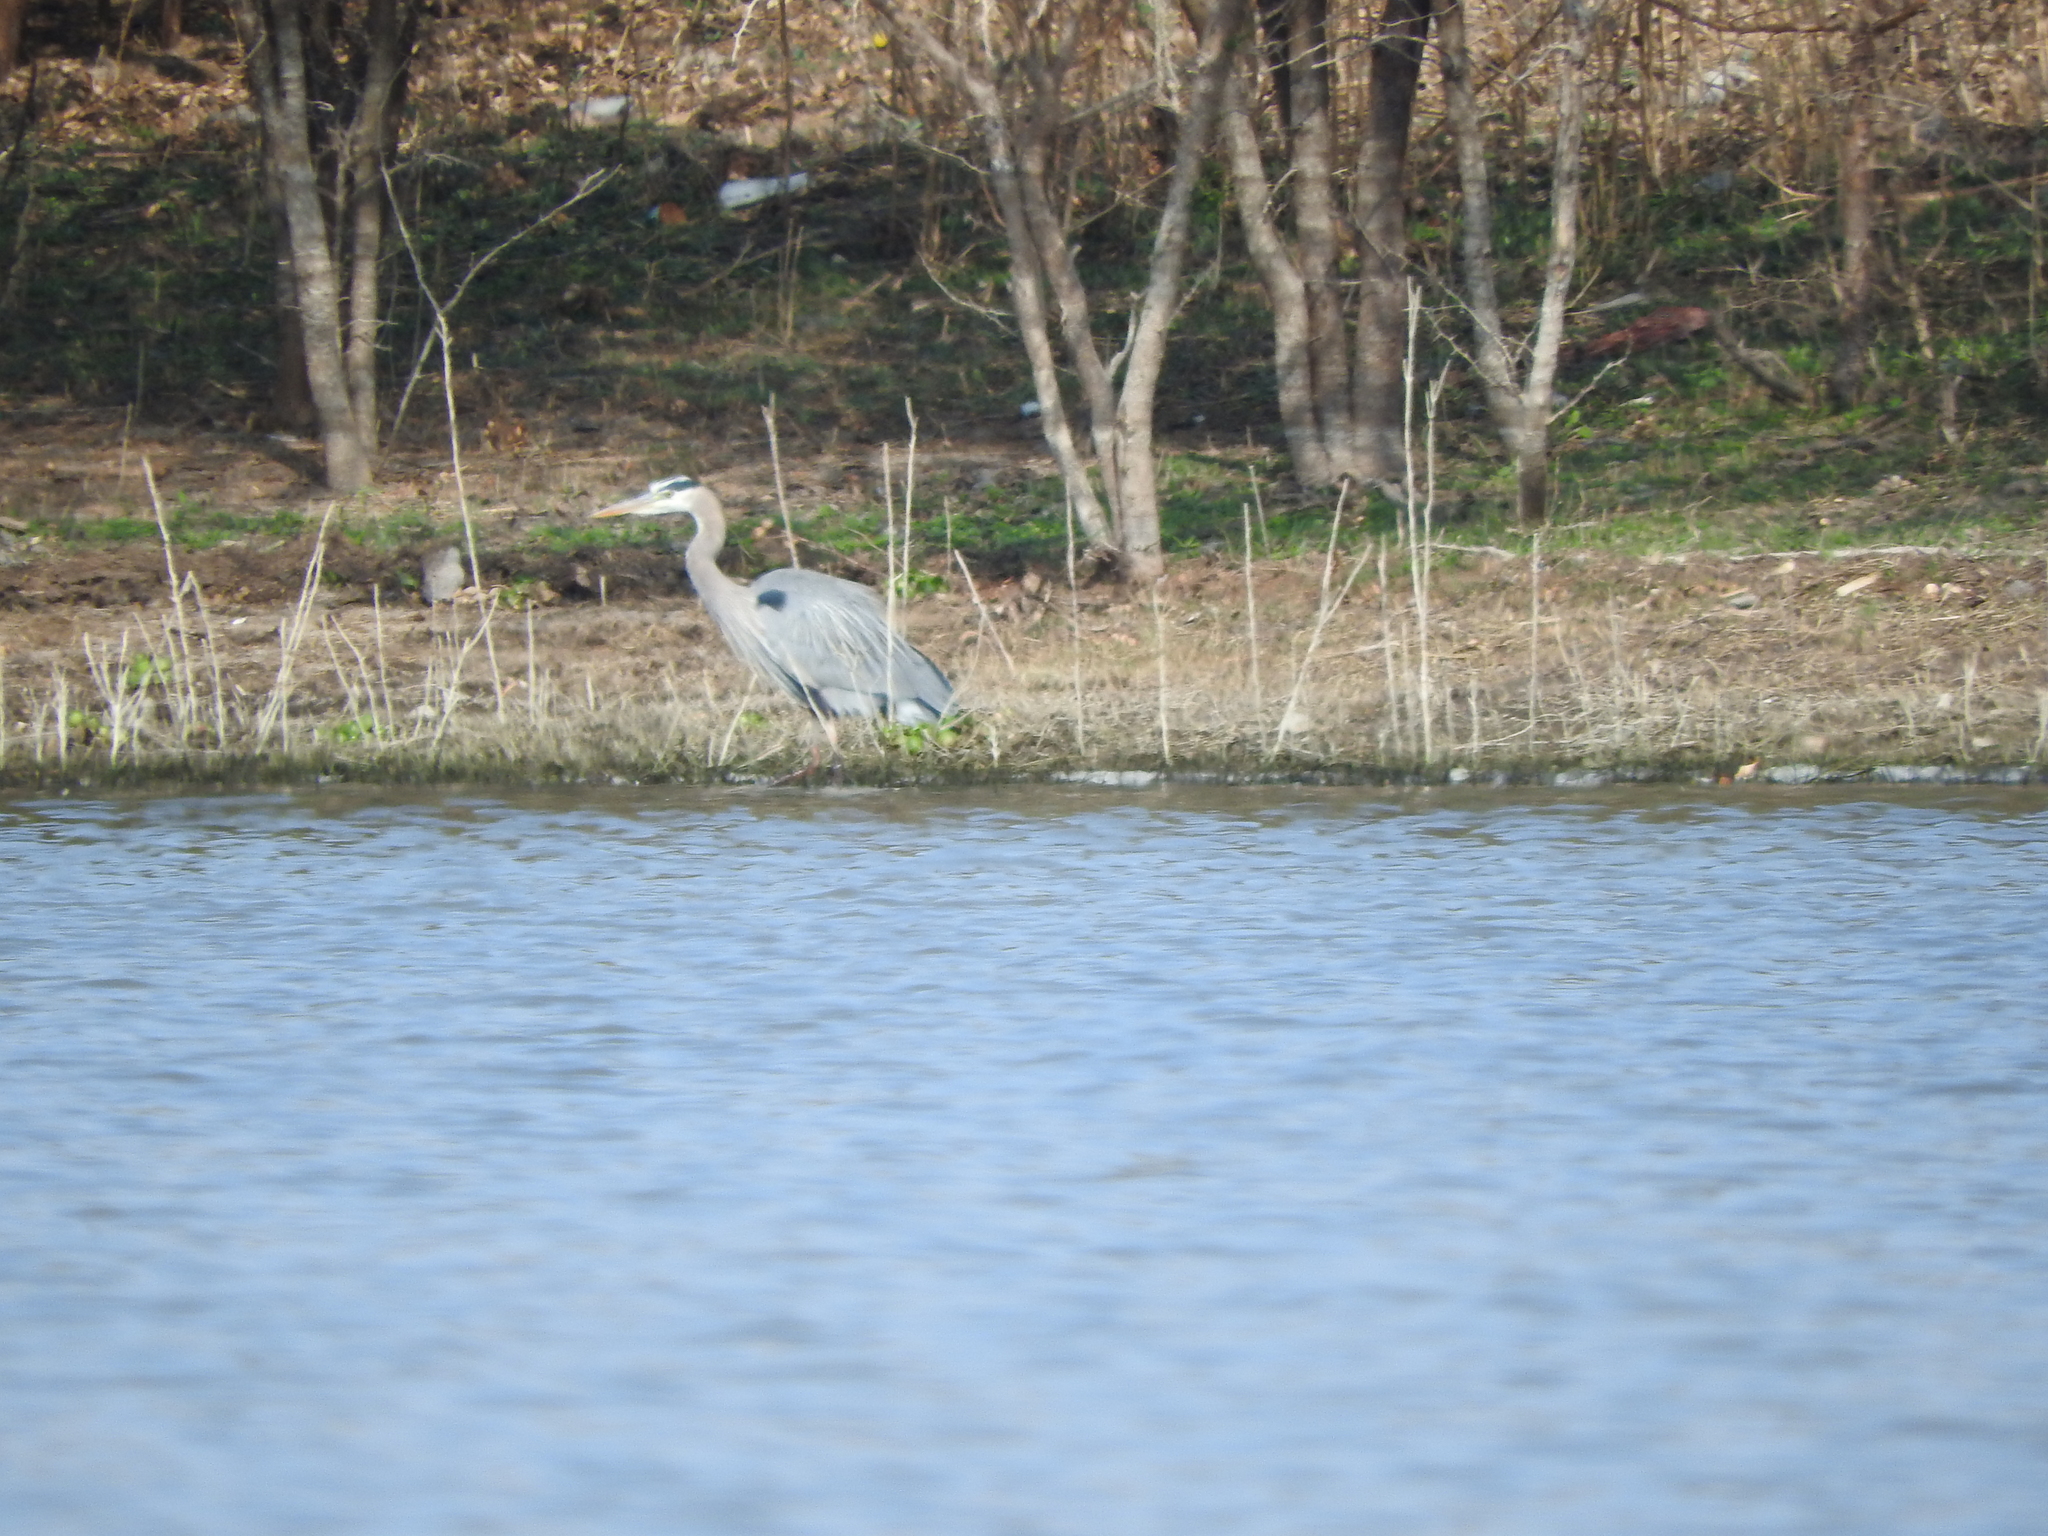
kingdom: Animalia
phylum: Chordata
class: Aves
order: Pelecaniformes
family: Ardeidae
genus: Ardea
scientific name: Ardea herodias
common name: Great blue heron
